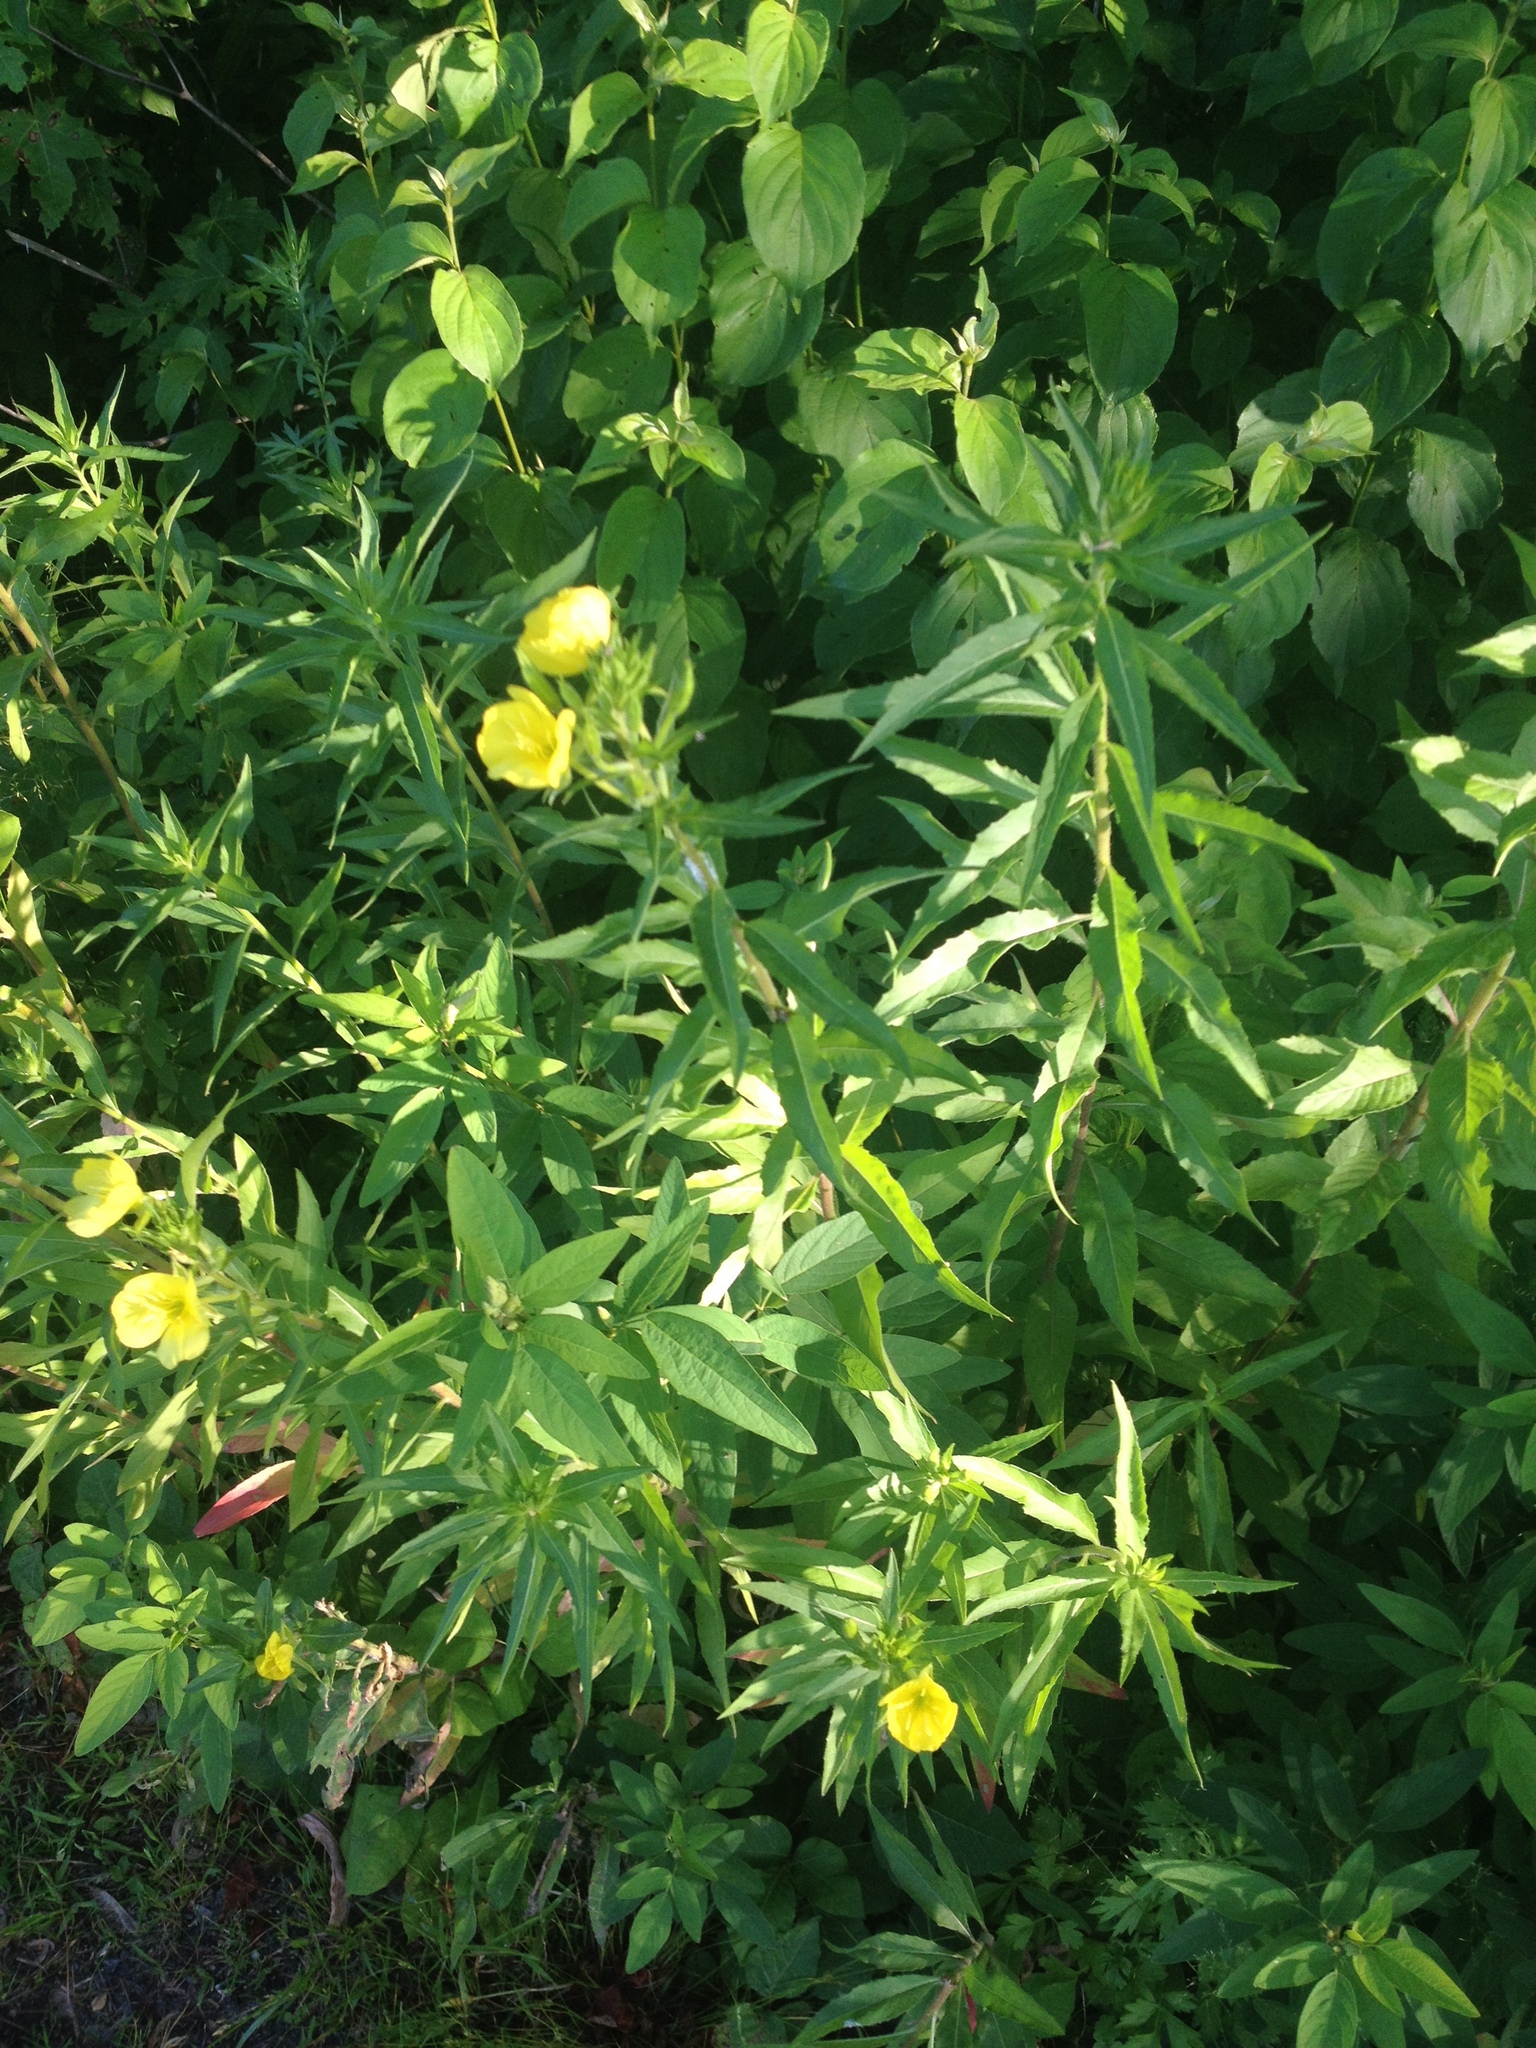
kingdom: Plantae
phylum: Tracheophyta
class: Magnoliopsida
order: Myrtales
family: Onagraceae
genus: Oenothera
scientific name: Oenothera biennis
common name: Common evening-primrose
